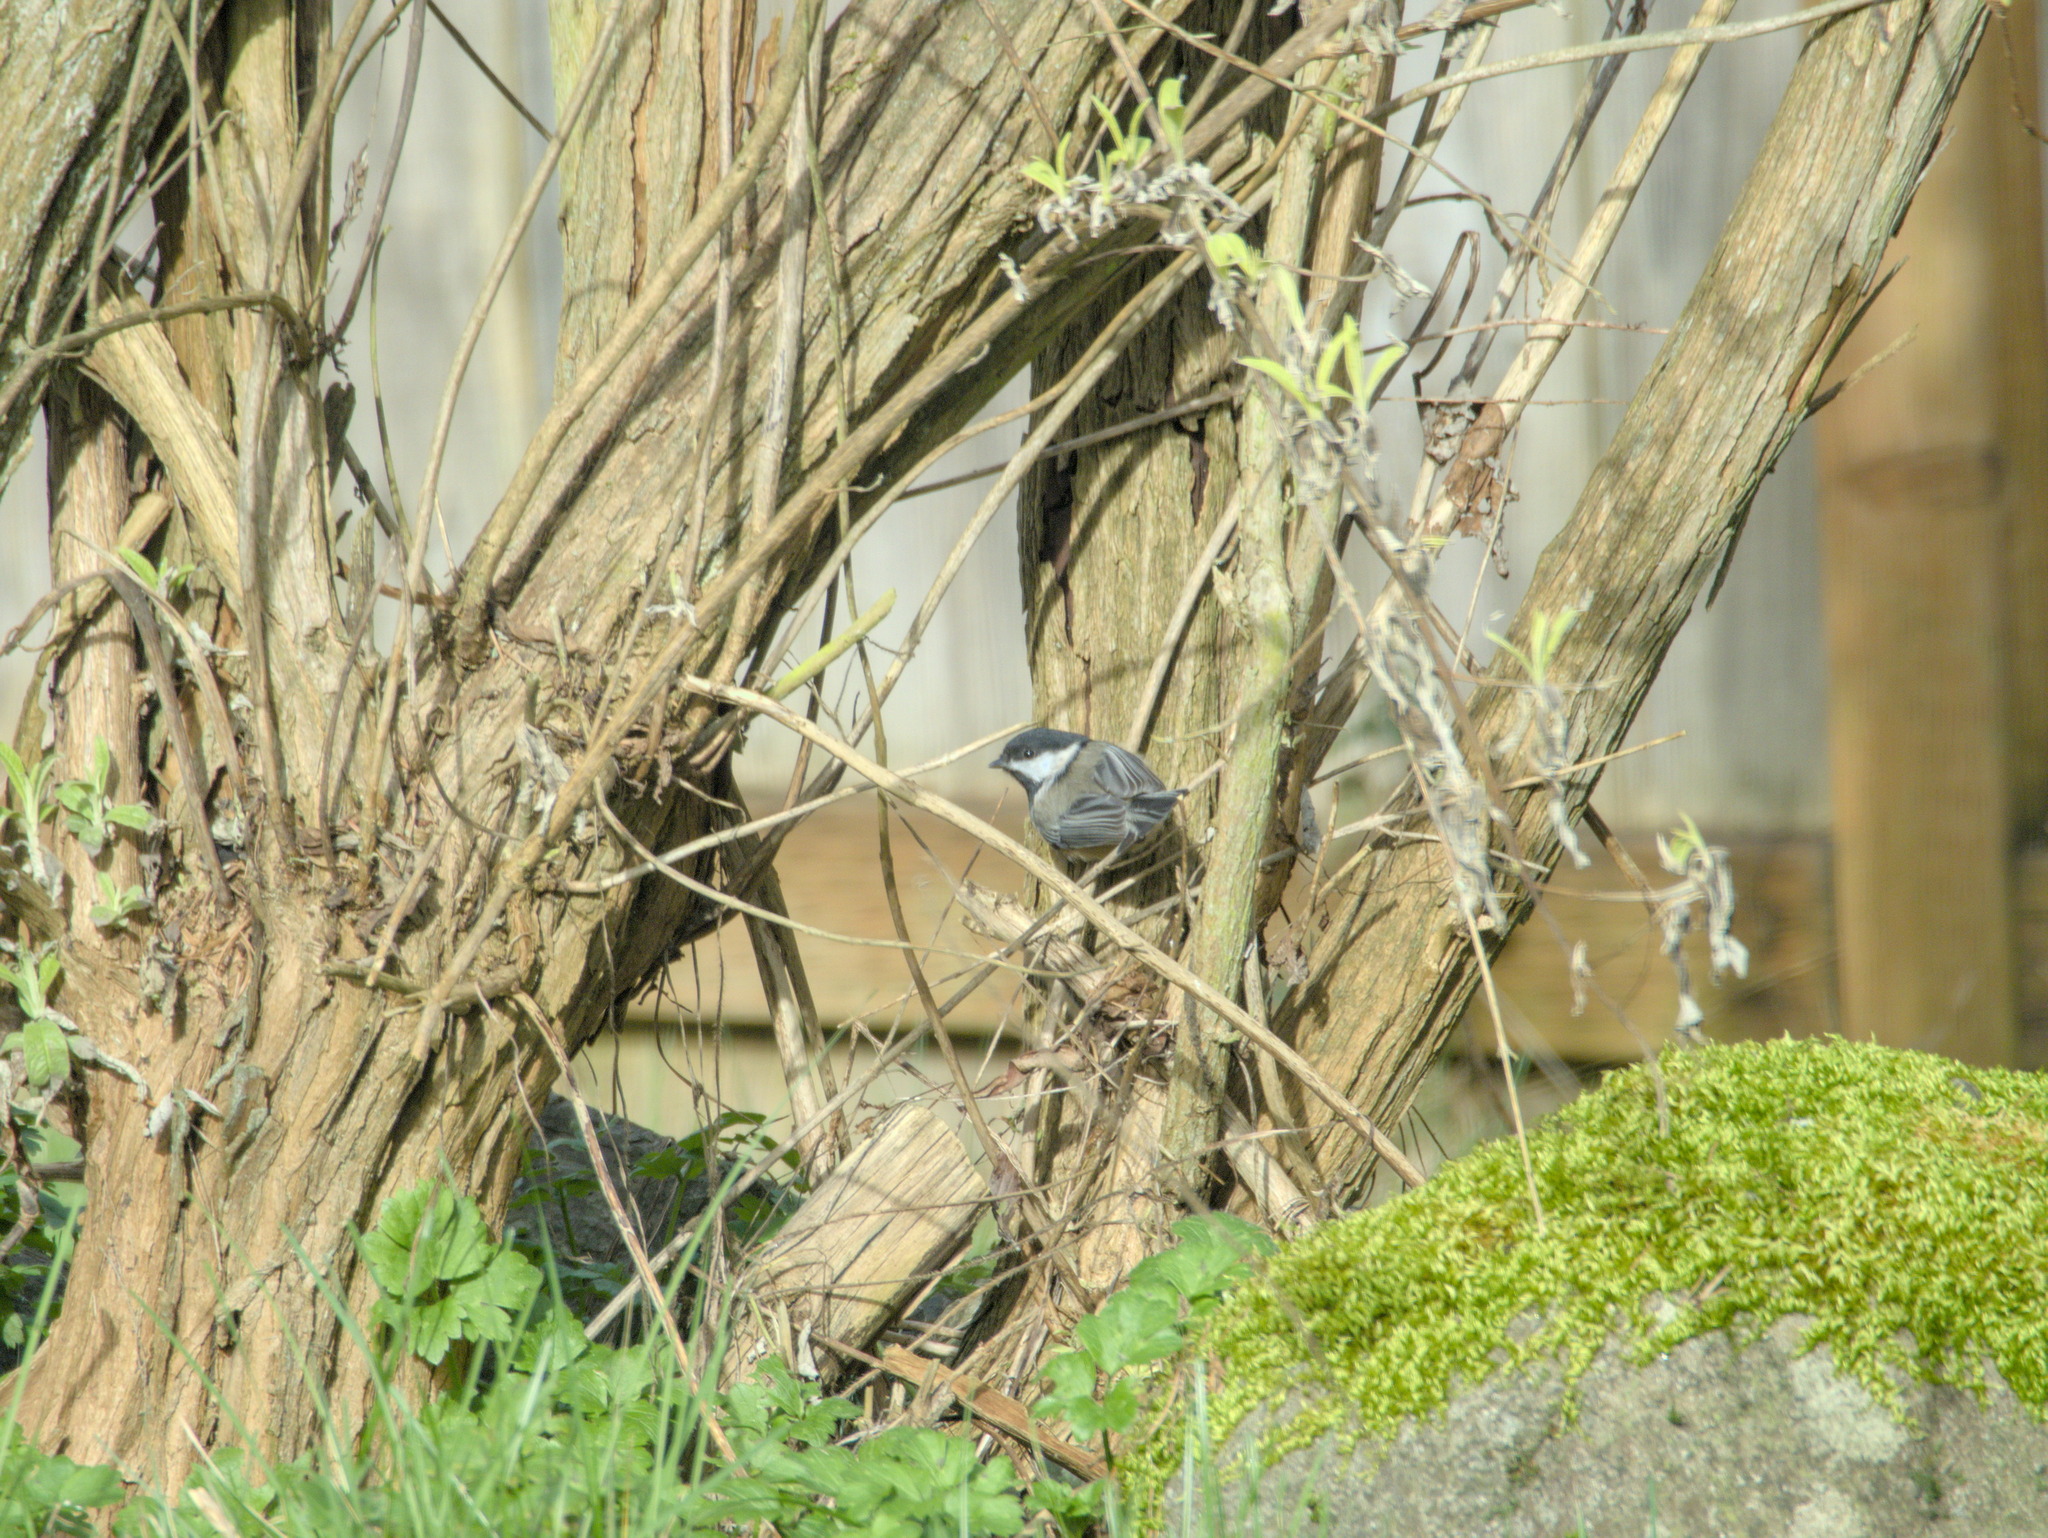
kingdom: Animalia
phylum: Chordata
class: Aves
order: Passeriformes
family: Paridae
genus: Poecile
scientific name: Poecile atricapillus
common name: Black-capped chickadee
